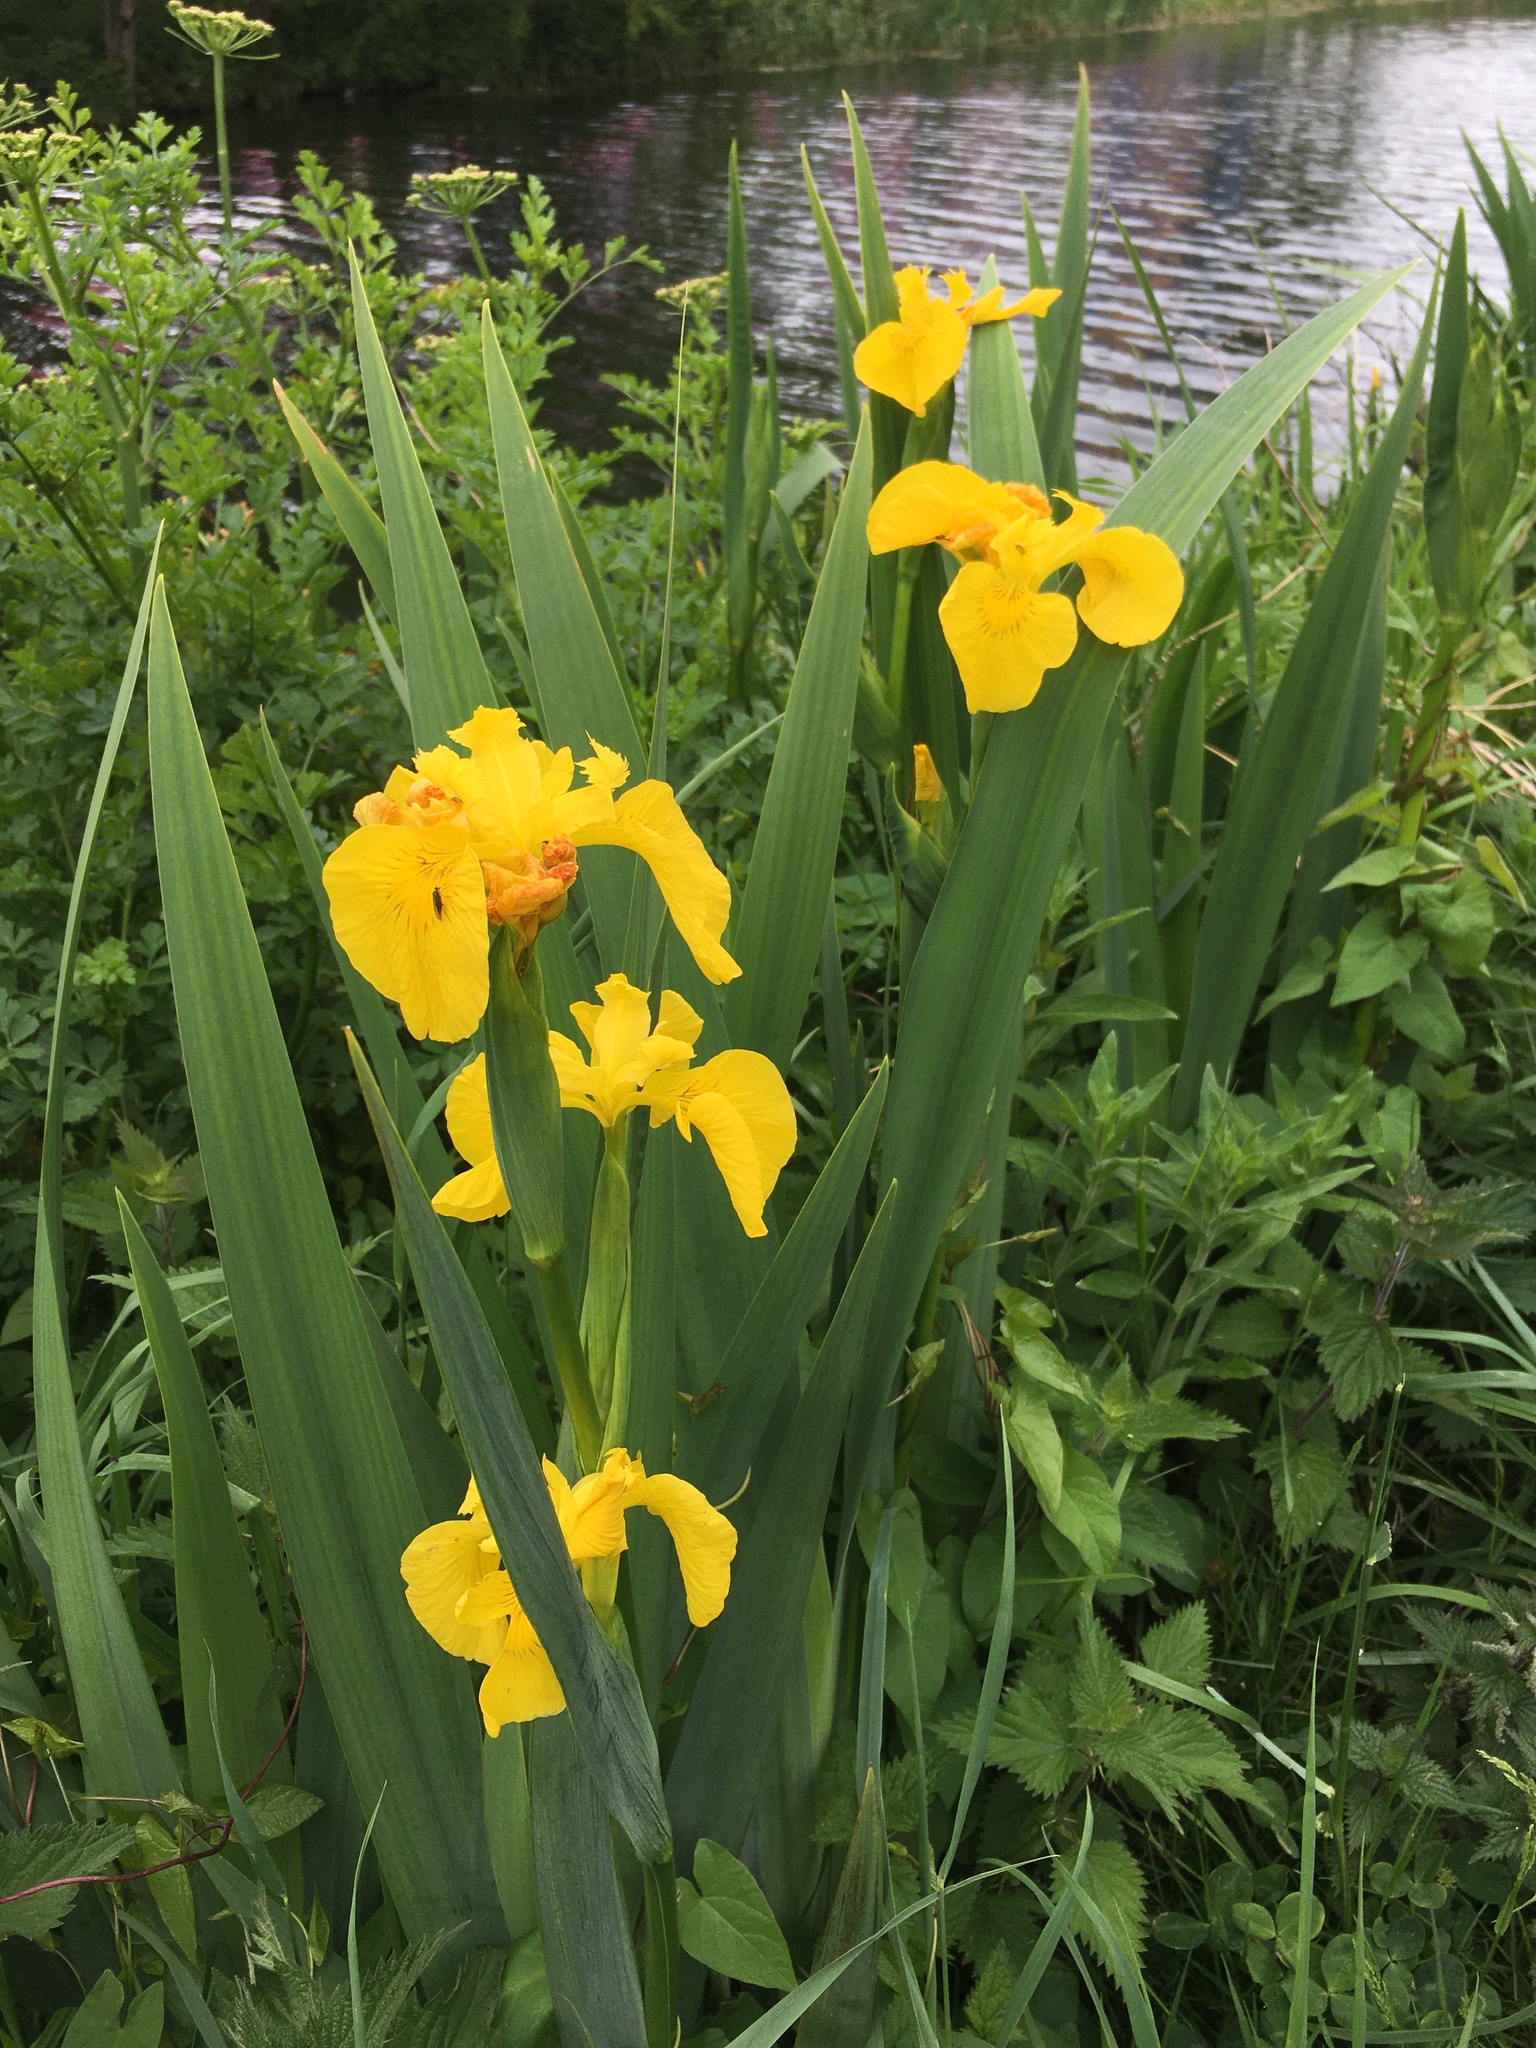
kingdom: Plantae
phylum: Tracheophyta
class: Liliopsida
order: Asparagales
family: Iridaceae
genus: Iris
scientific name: Iris pseudacorus
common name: Yellow flag
